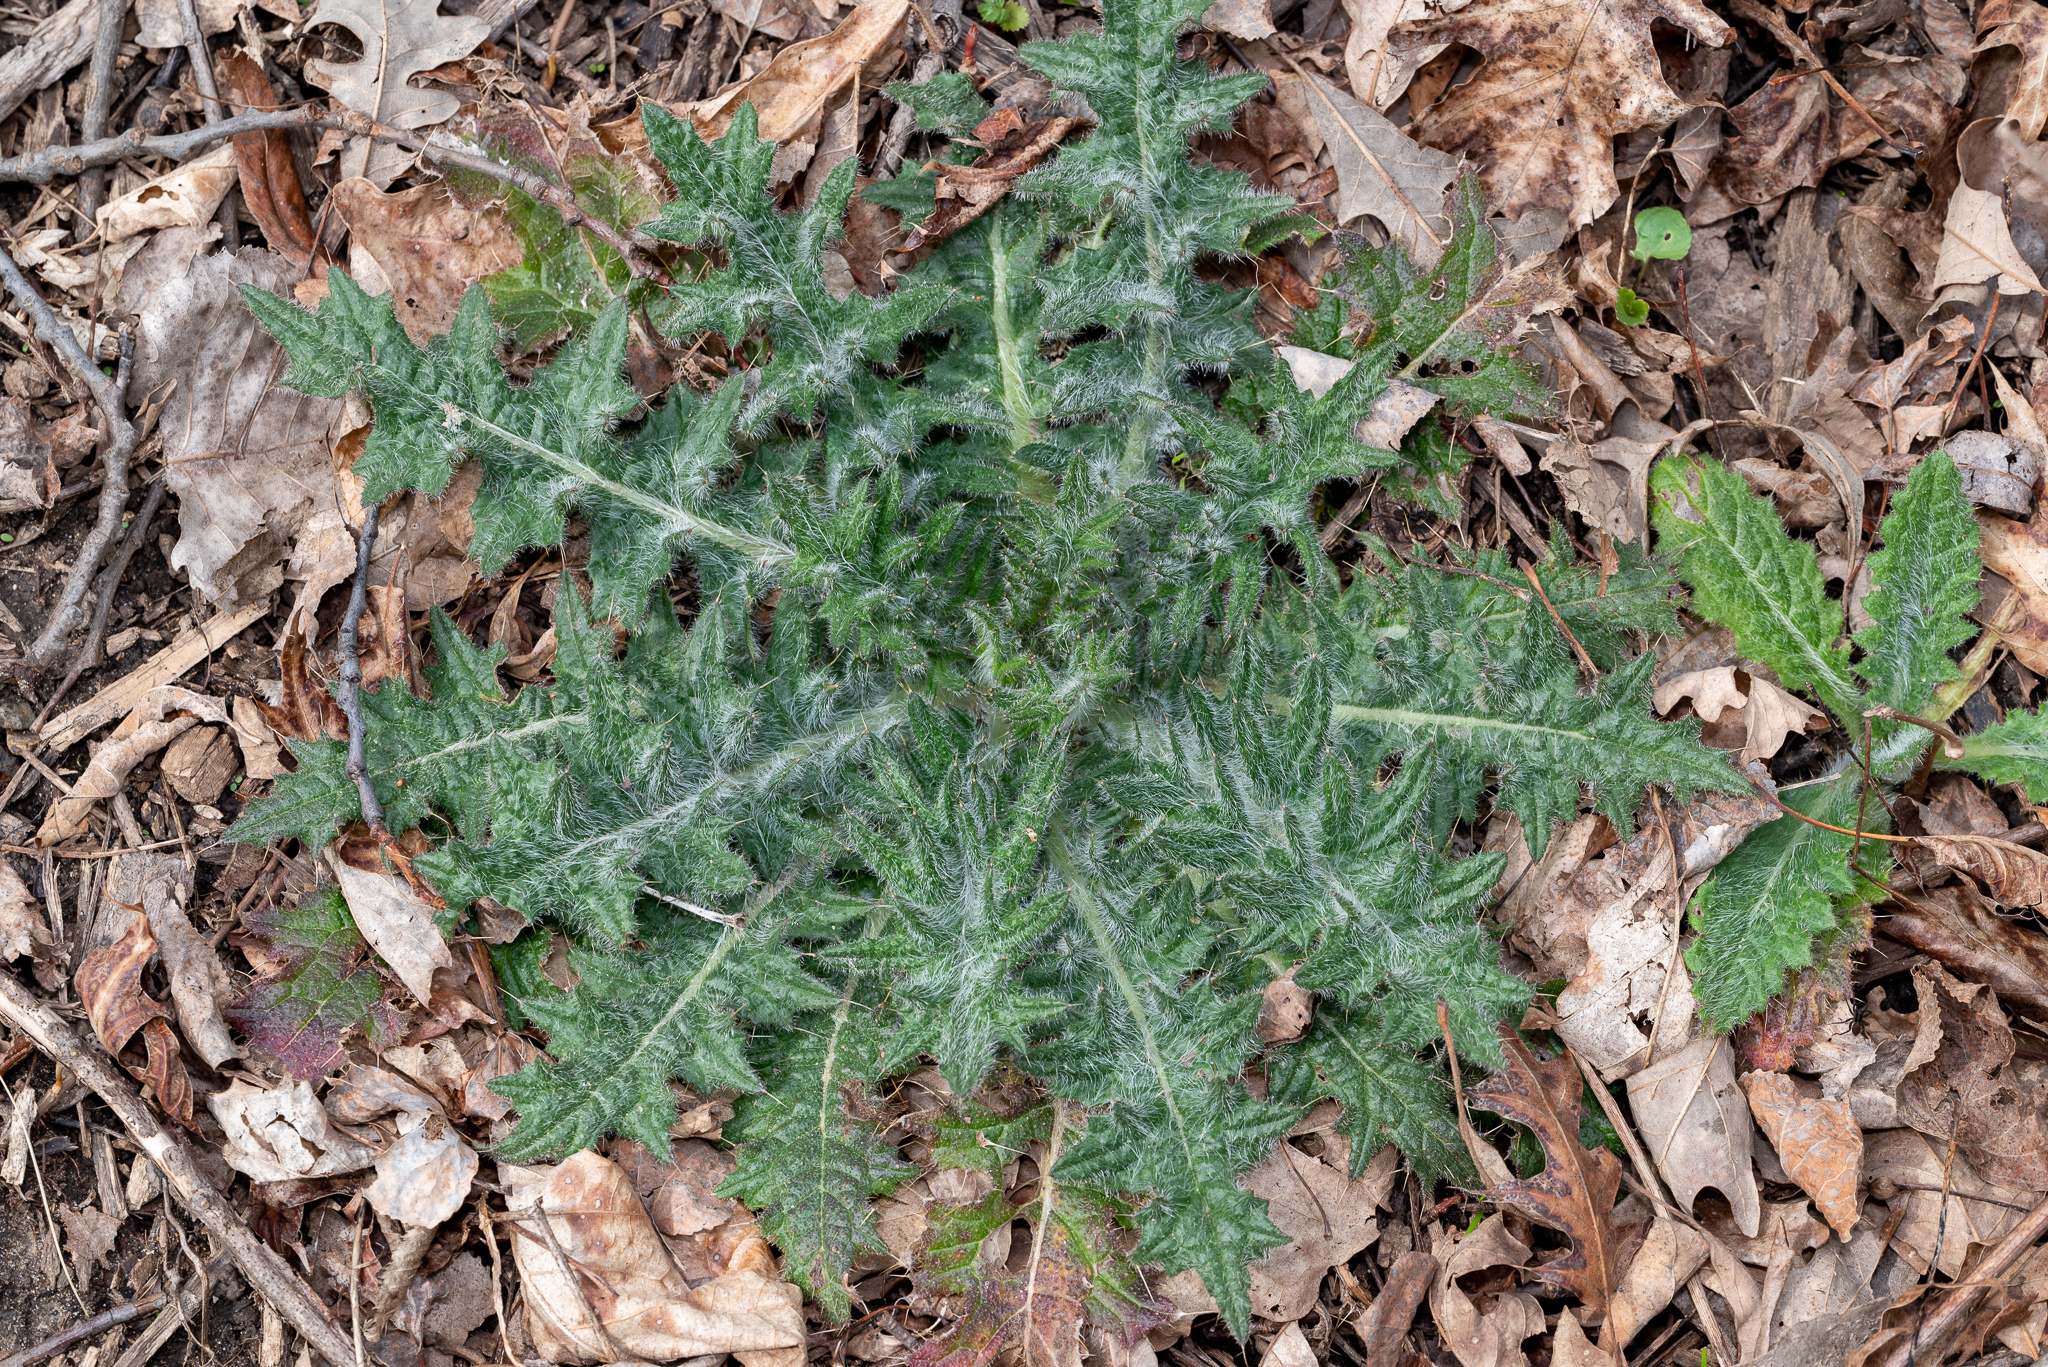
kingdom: Plantae
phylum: Tracheophyta
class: Magnoliopsida
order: Asterales
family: Asteraceae
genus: Cirsium
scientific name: Cirsium vulgare
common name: Bull thistle
